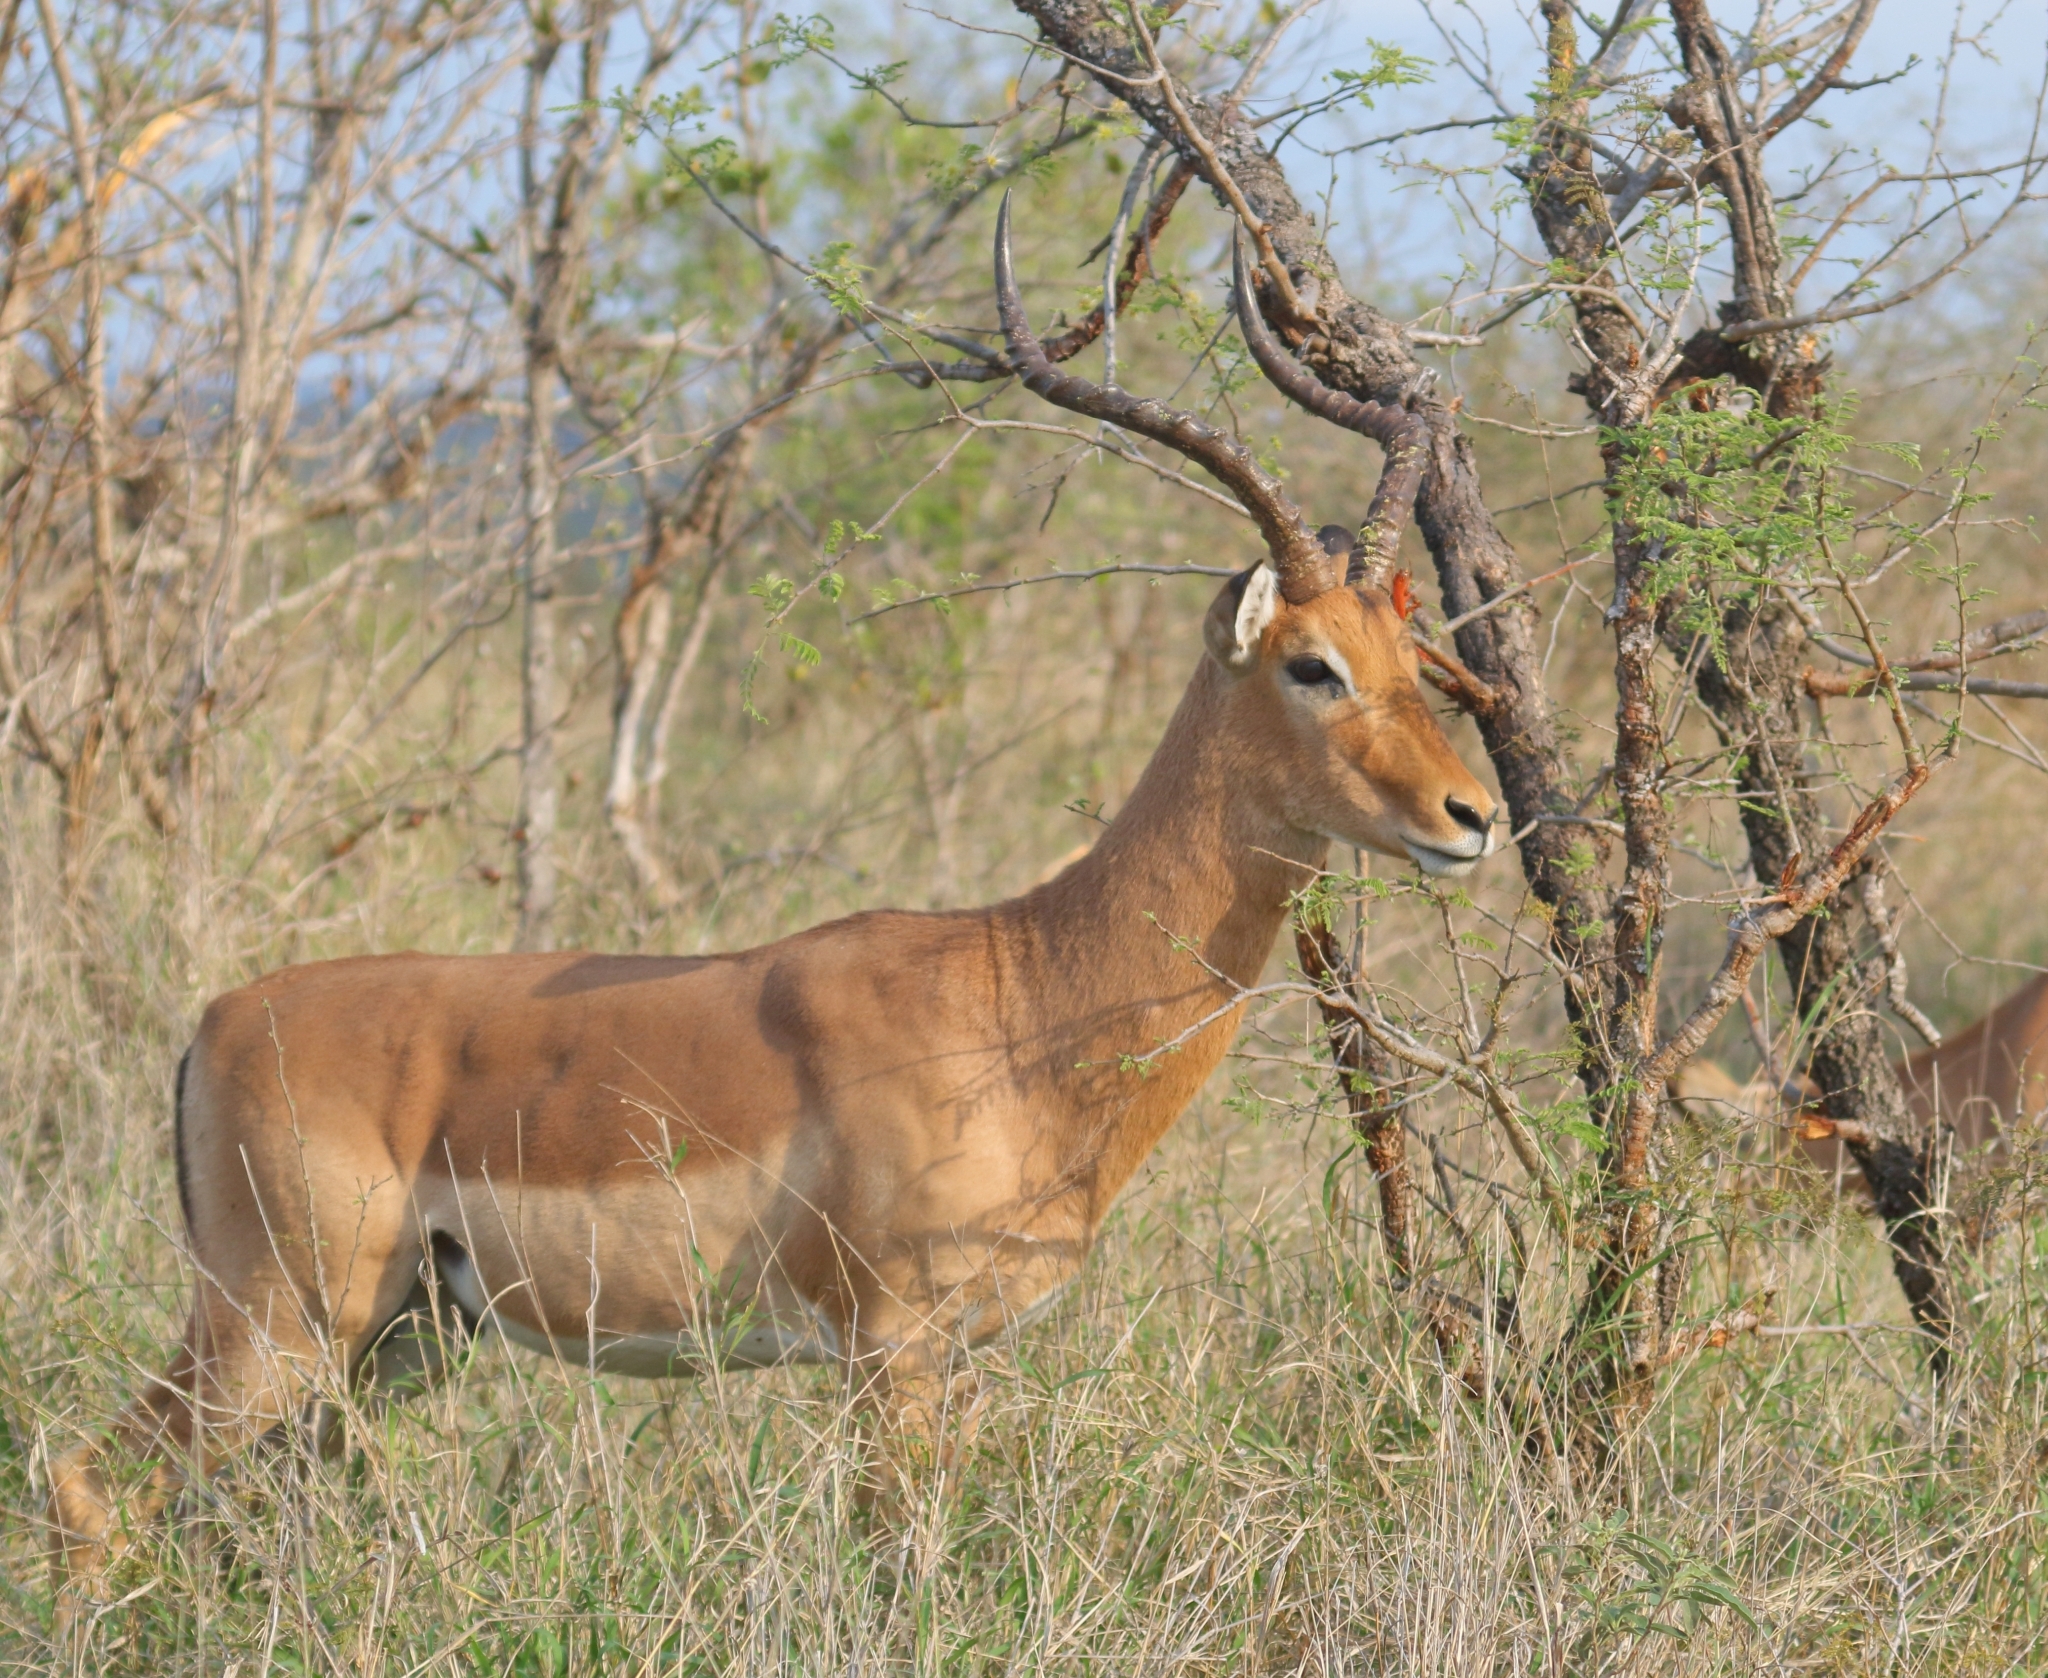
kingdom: Animalia
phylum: Chordata
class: Mammalia
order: Artiodactyla
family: Bovidae
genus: Aepyceros
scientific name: Aepyceros melampus
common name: Impala
